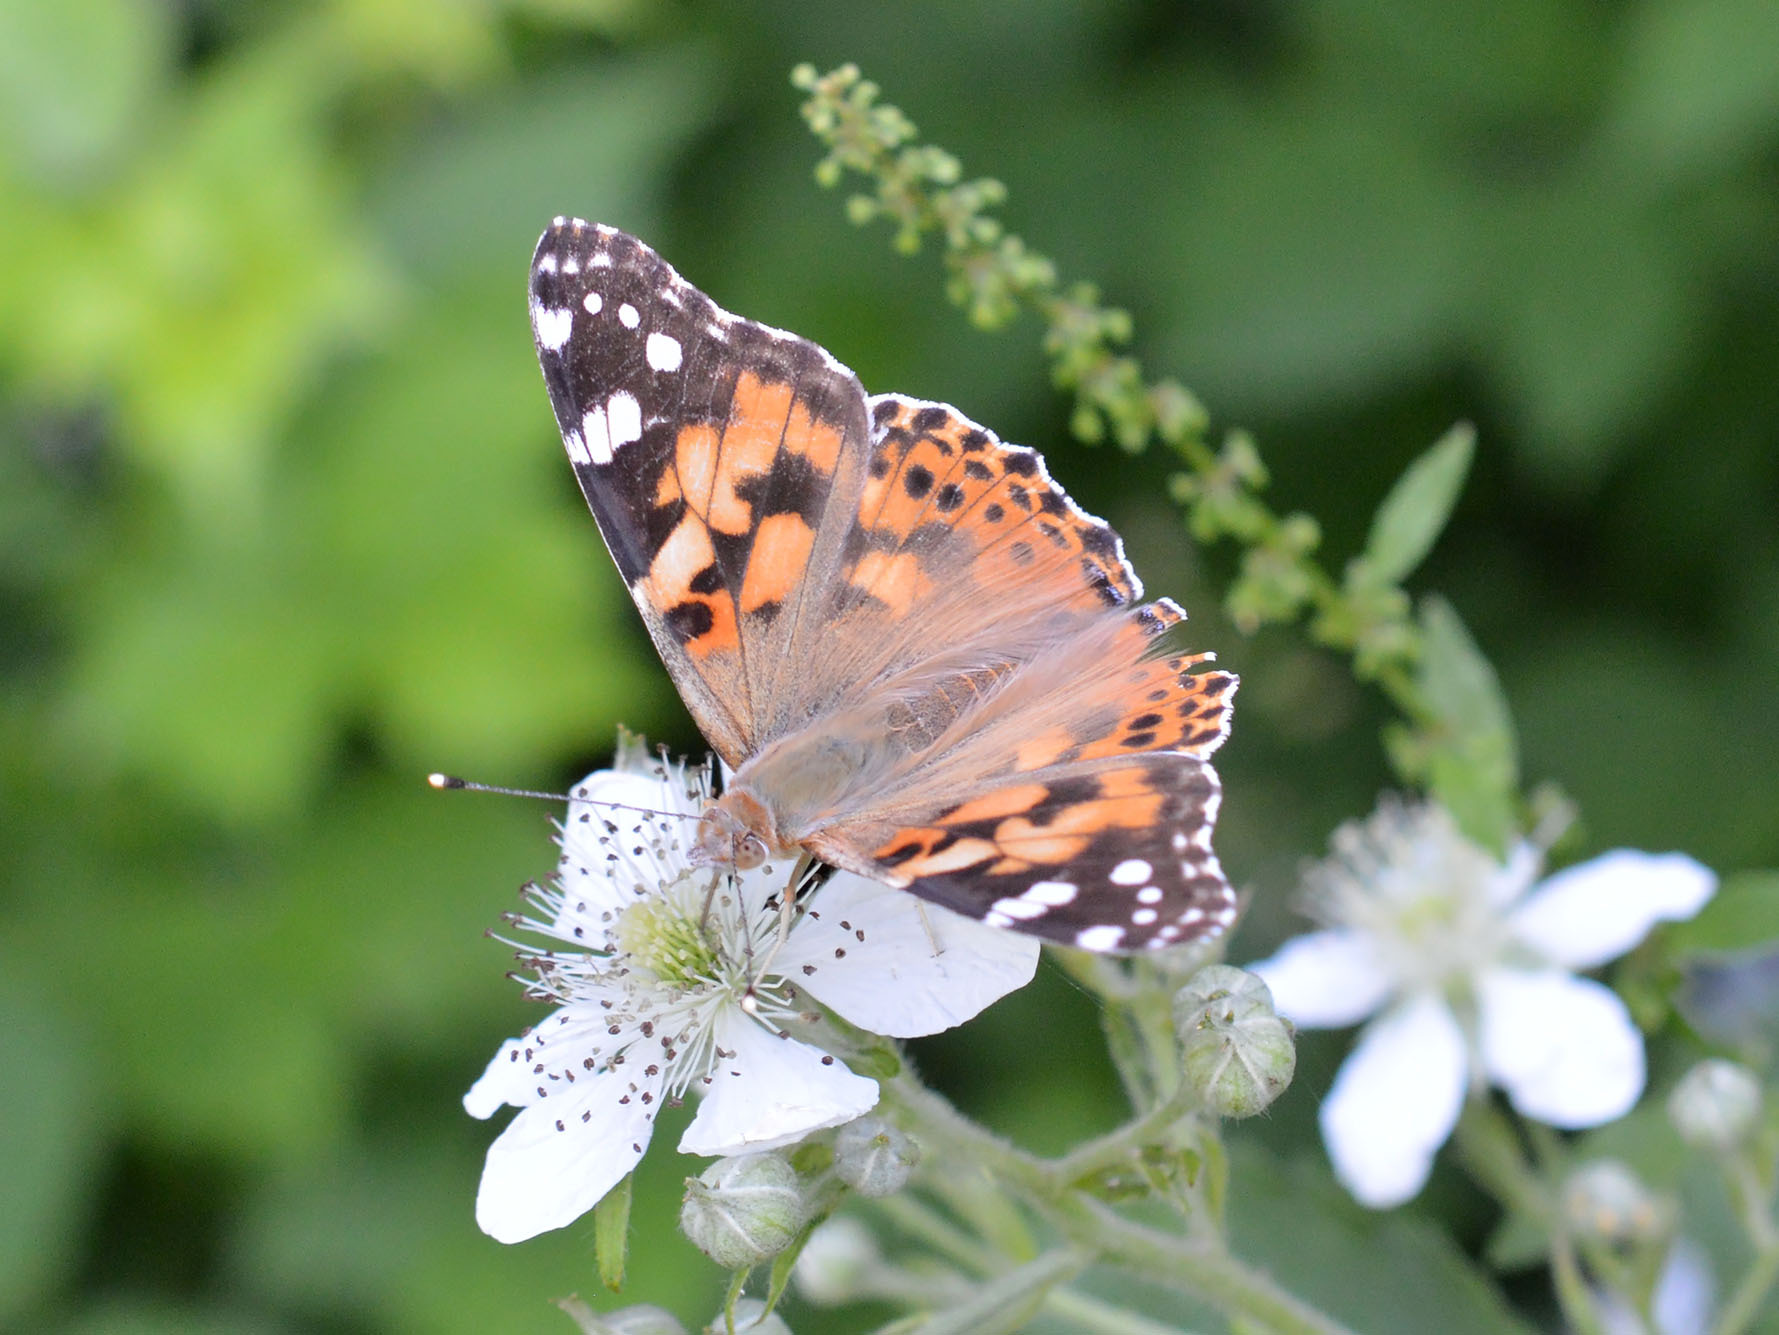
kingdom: Animalia
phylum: Arthropoda
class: Insecta
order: Lepidoptera
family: Nymphalidae
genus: Vanessa
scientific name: Vanessa cardui
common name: Painted lady
